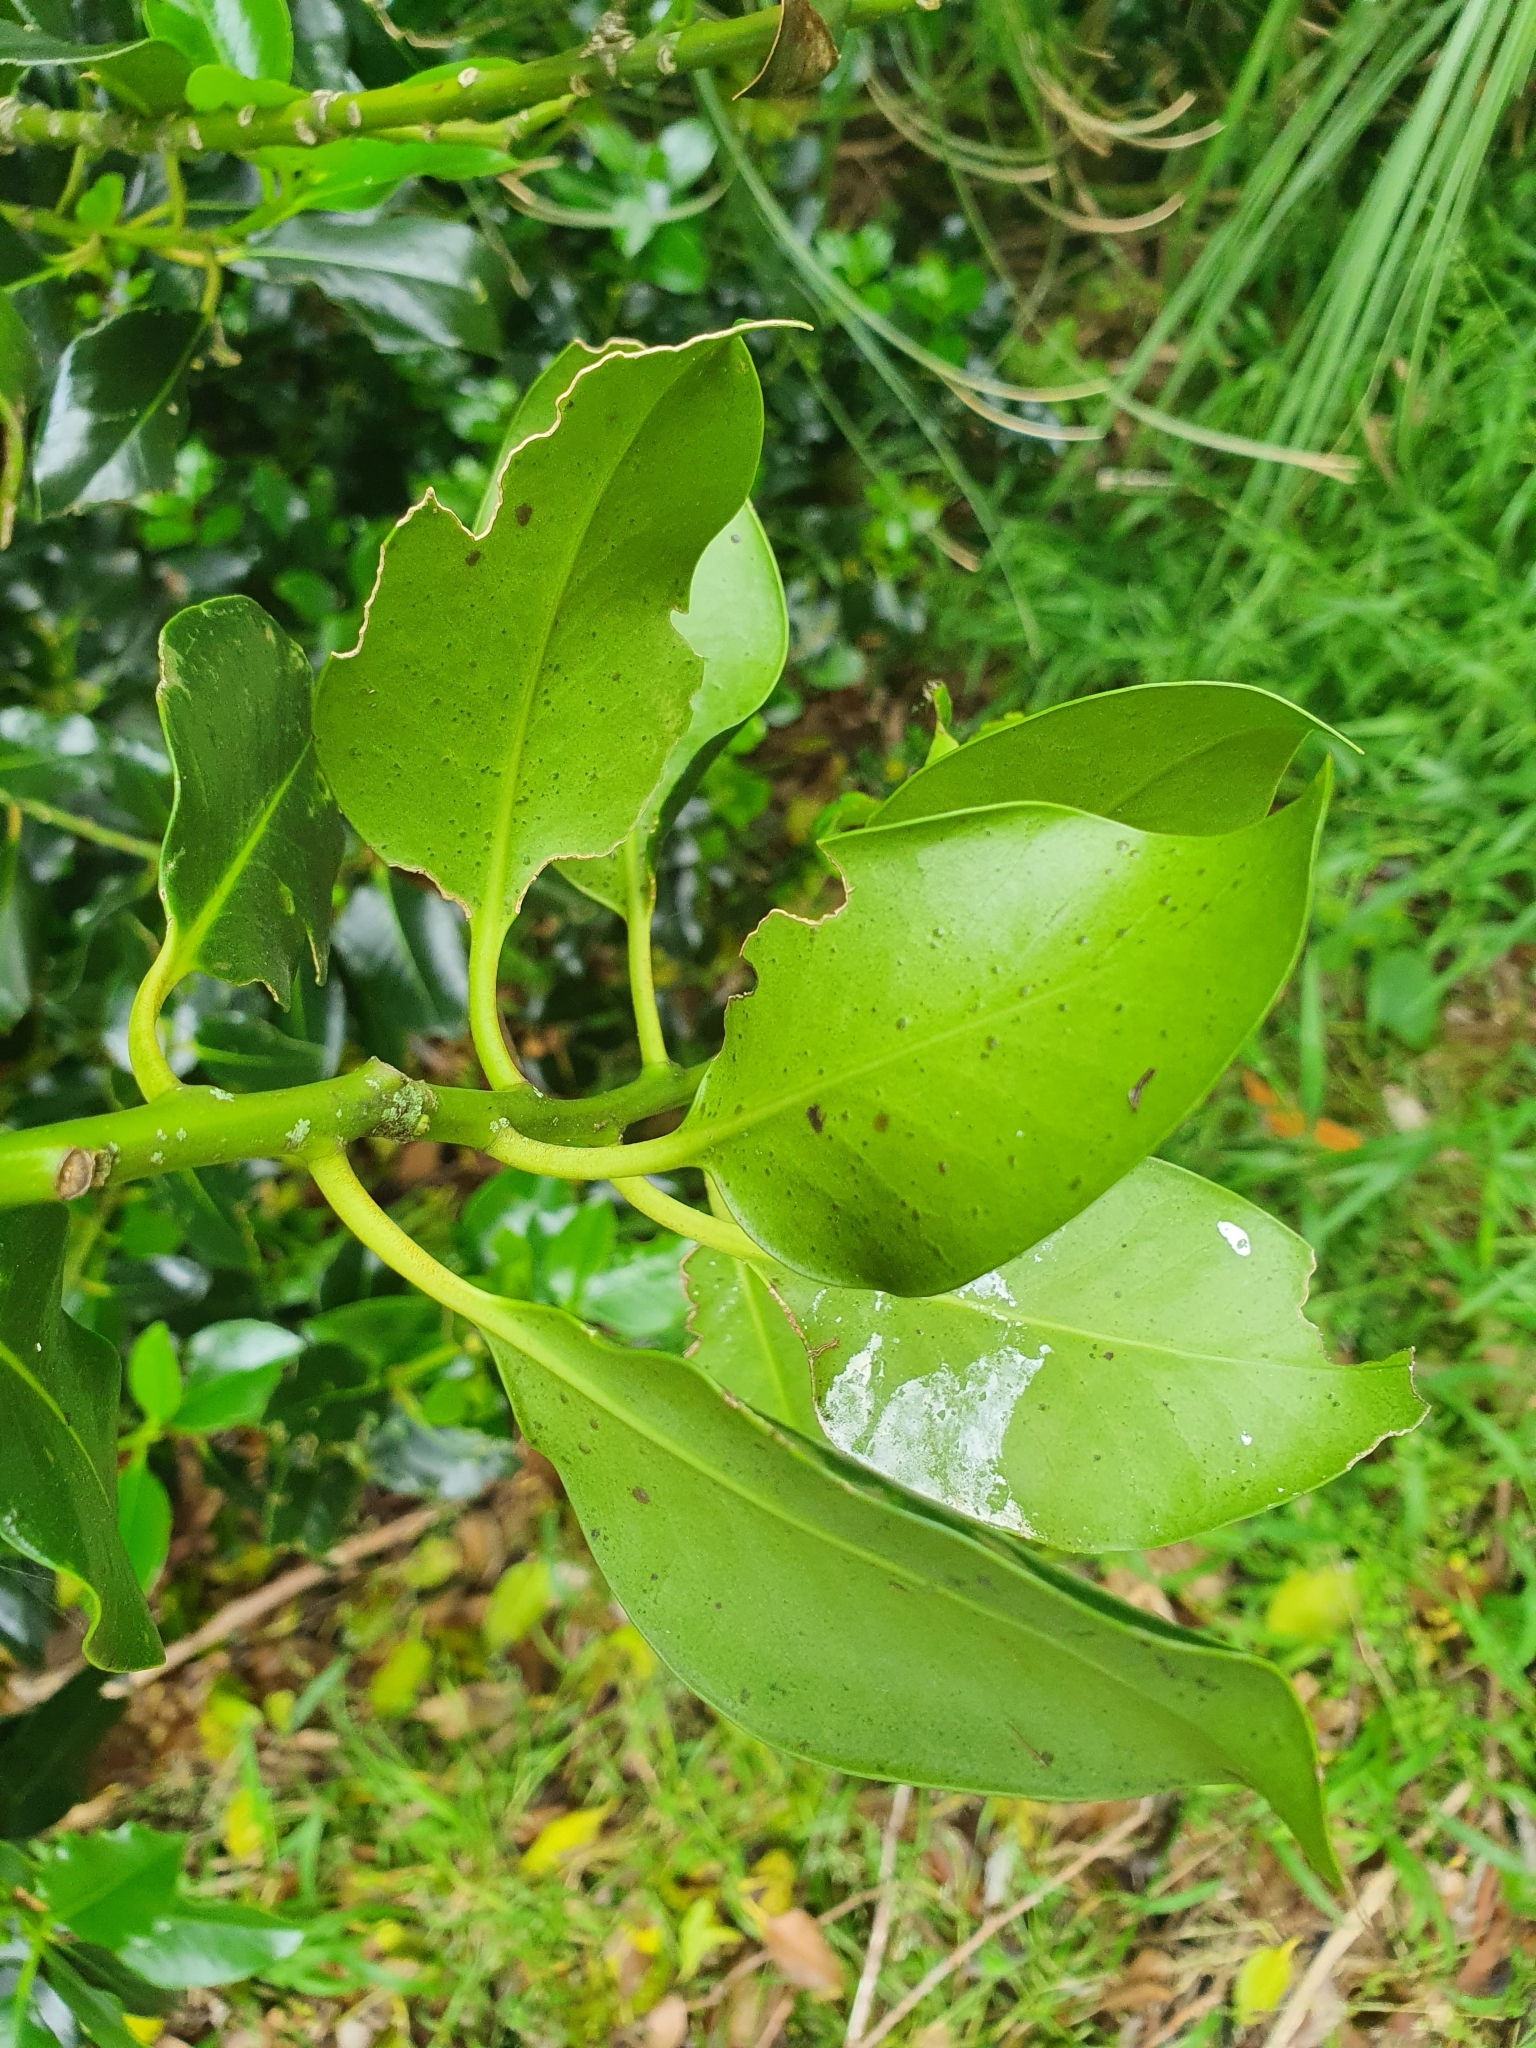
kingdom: Plantae
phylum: Tracheophyta
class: Magnoliopsida
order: Aquifoliales
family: Aquifoliaceae
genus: Ilex
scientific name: Ilex aquifolium
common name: English holly
